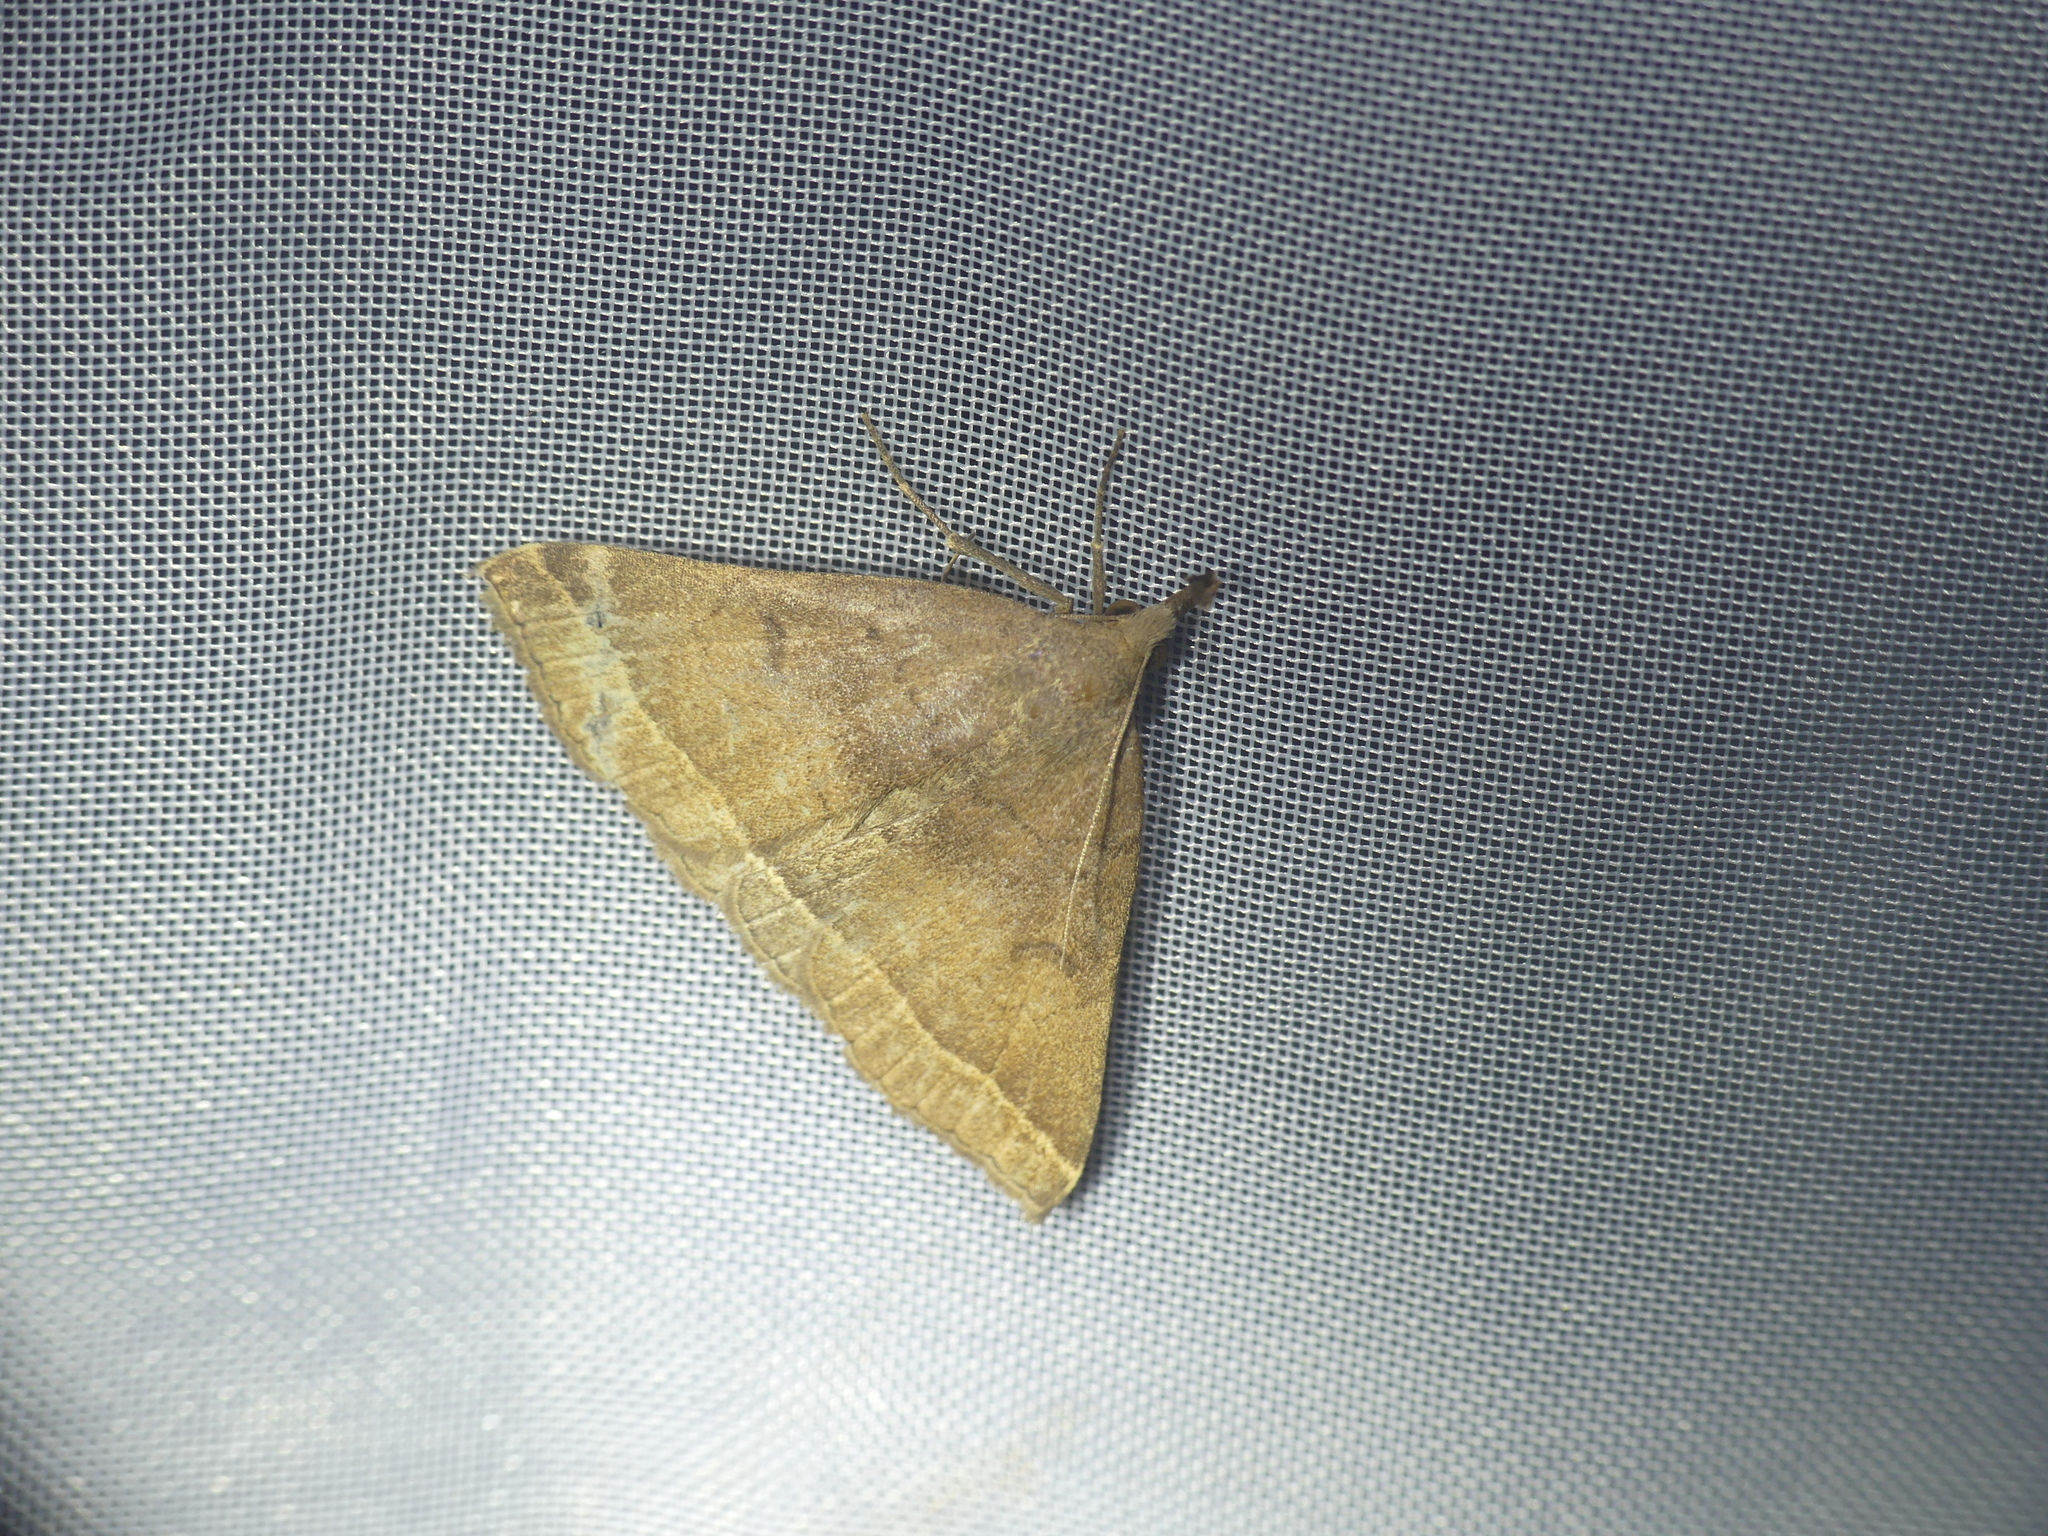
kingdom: Animalia
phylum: Arthropoda
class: Insecta
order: Lepidoptera
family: Erebidae
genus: Pechipogo
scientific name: Pechipogo plumigeralis
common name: Plumed fan-foot
